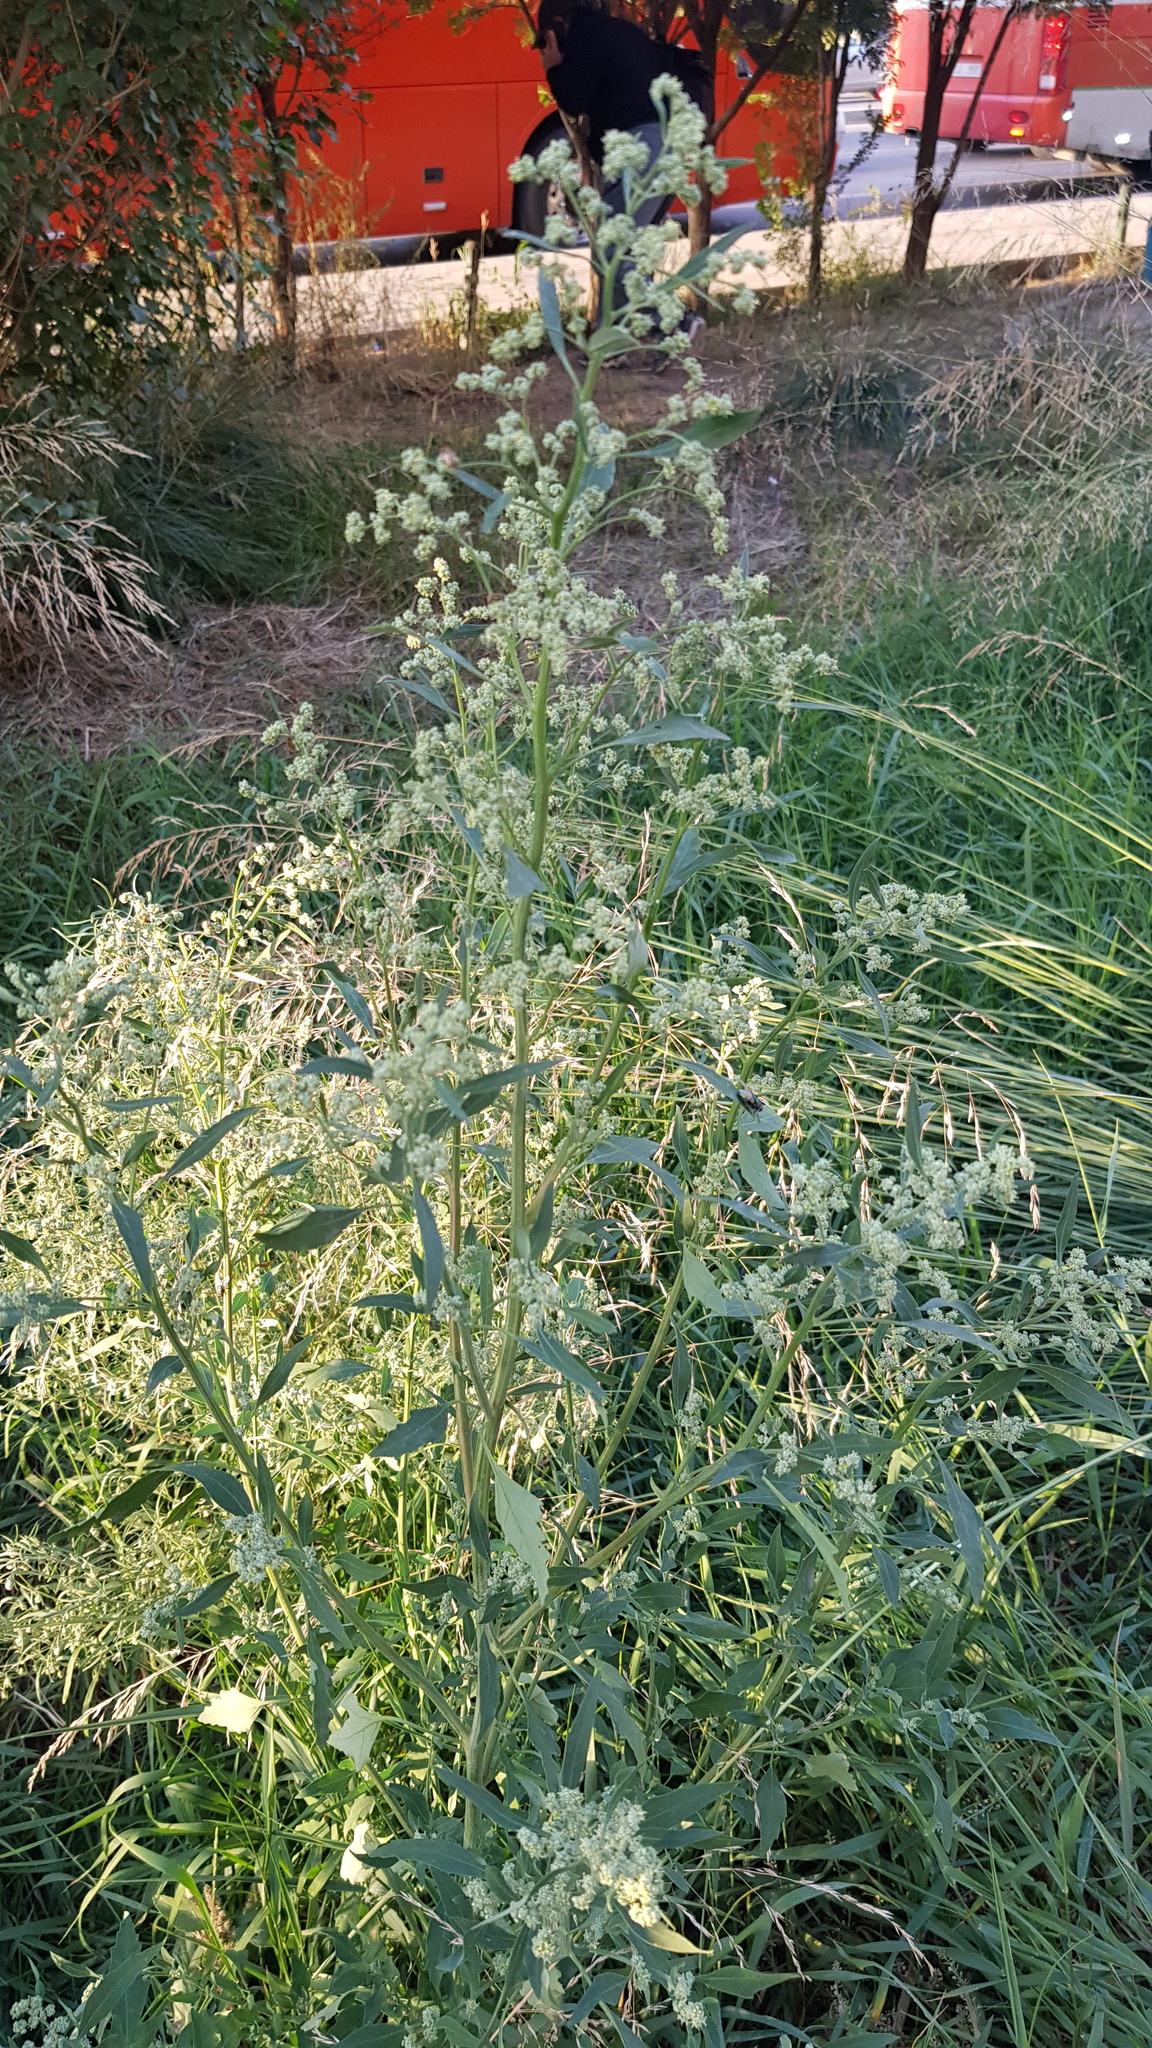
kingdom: Plantae
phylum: Tracheophyta
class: Magnoliopsida
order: Caryophyllales
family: Amaranthaceae
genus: Chenopodium
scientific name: Chenopodium album
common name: Fat-hen
